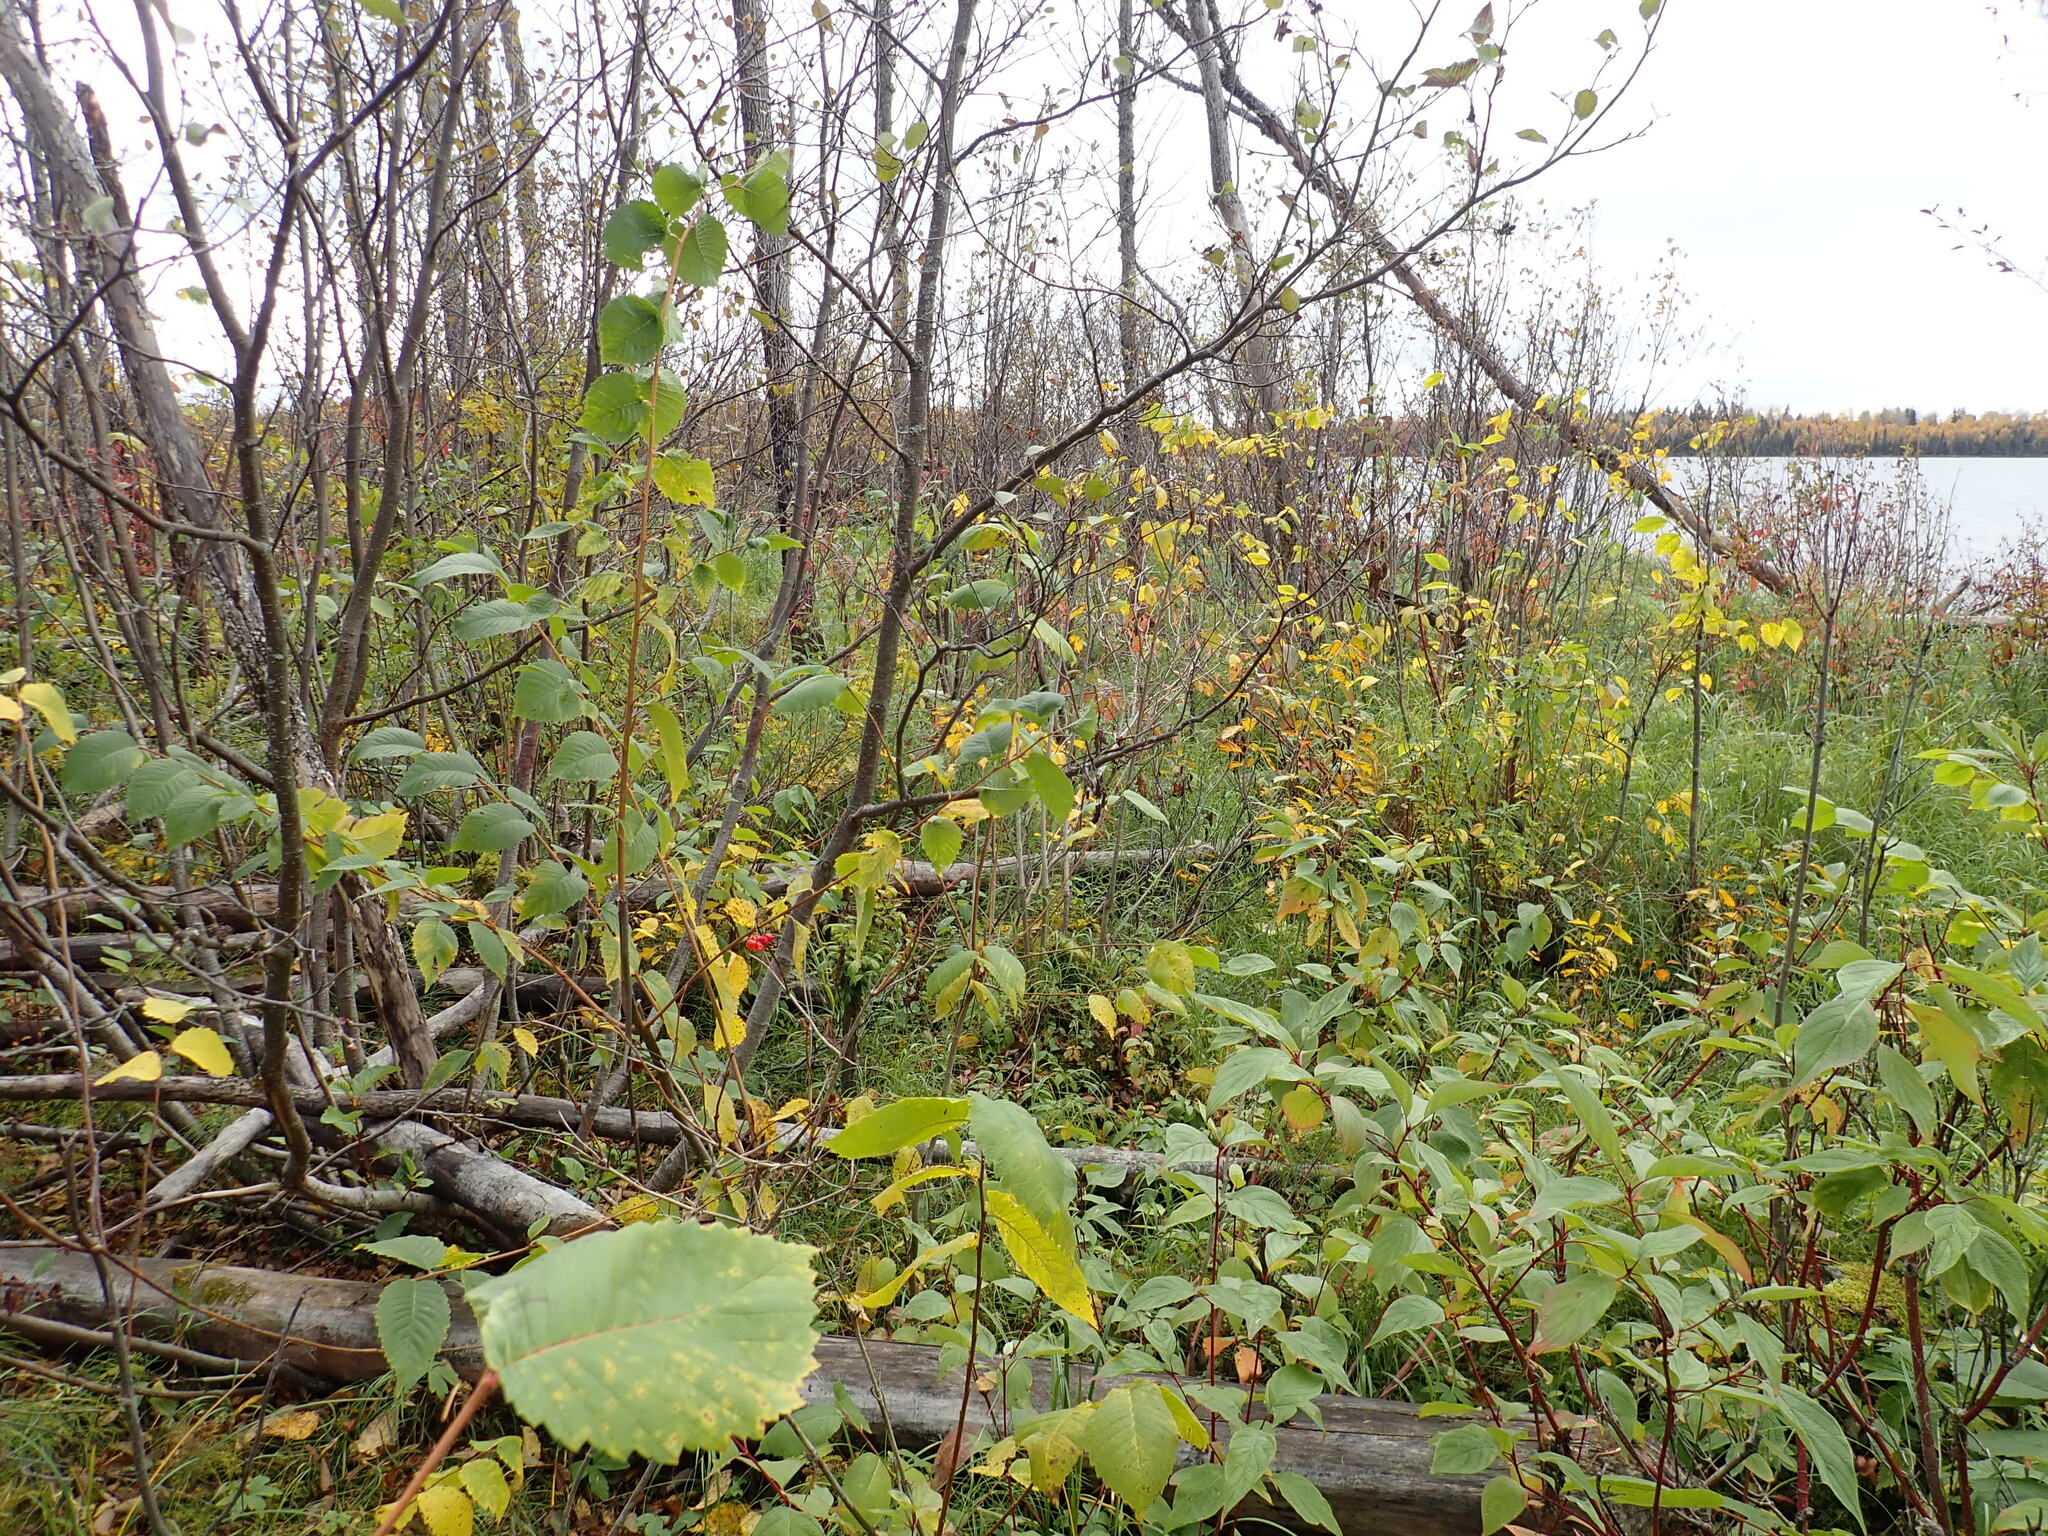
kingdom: Plantae
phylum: Tracheophyta
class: Magnoliopsida
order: Rosales
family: Ulmaceae
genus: Ulmus
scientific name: Ulmus americana
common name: American elm
